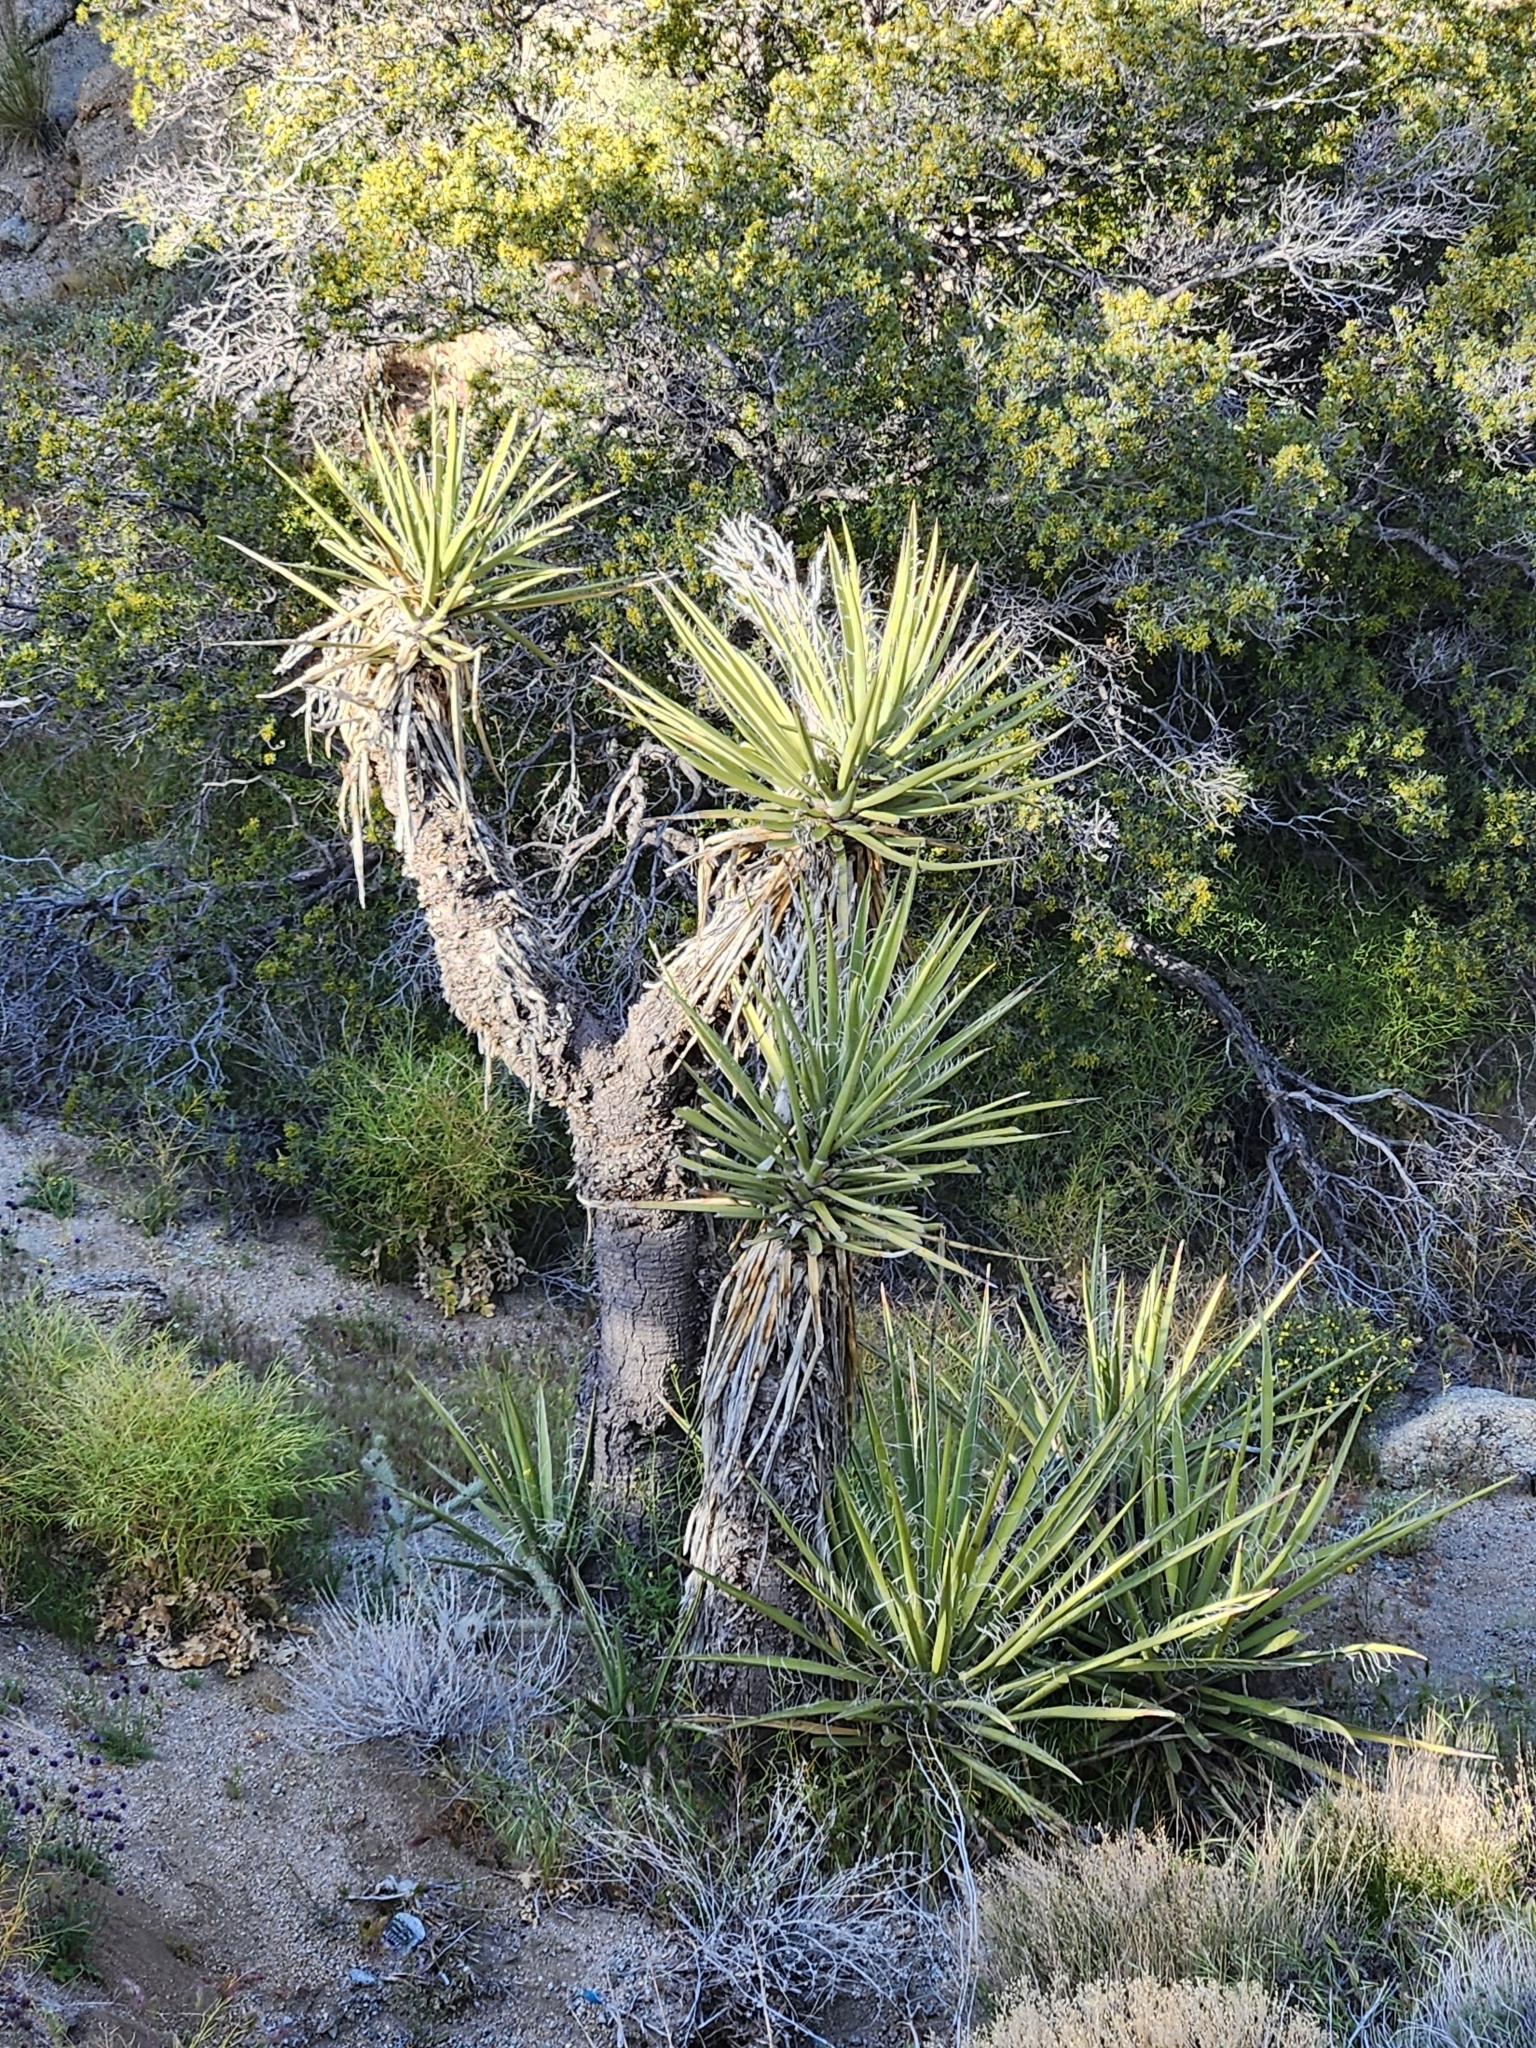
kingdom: Plantae
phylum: Tracheophyta
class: Liliopsida
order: Asparagales
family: Asparagaceae
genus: Yucca
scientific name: Yucca schidigera
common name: Mojave yucca
